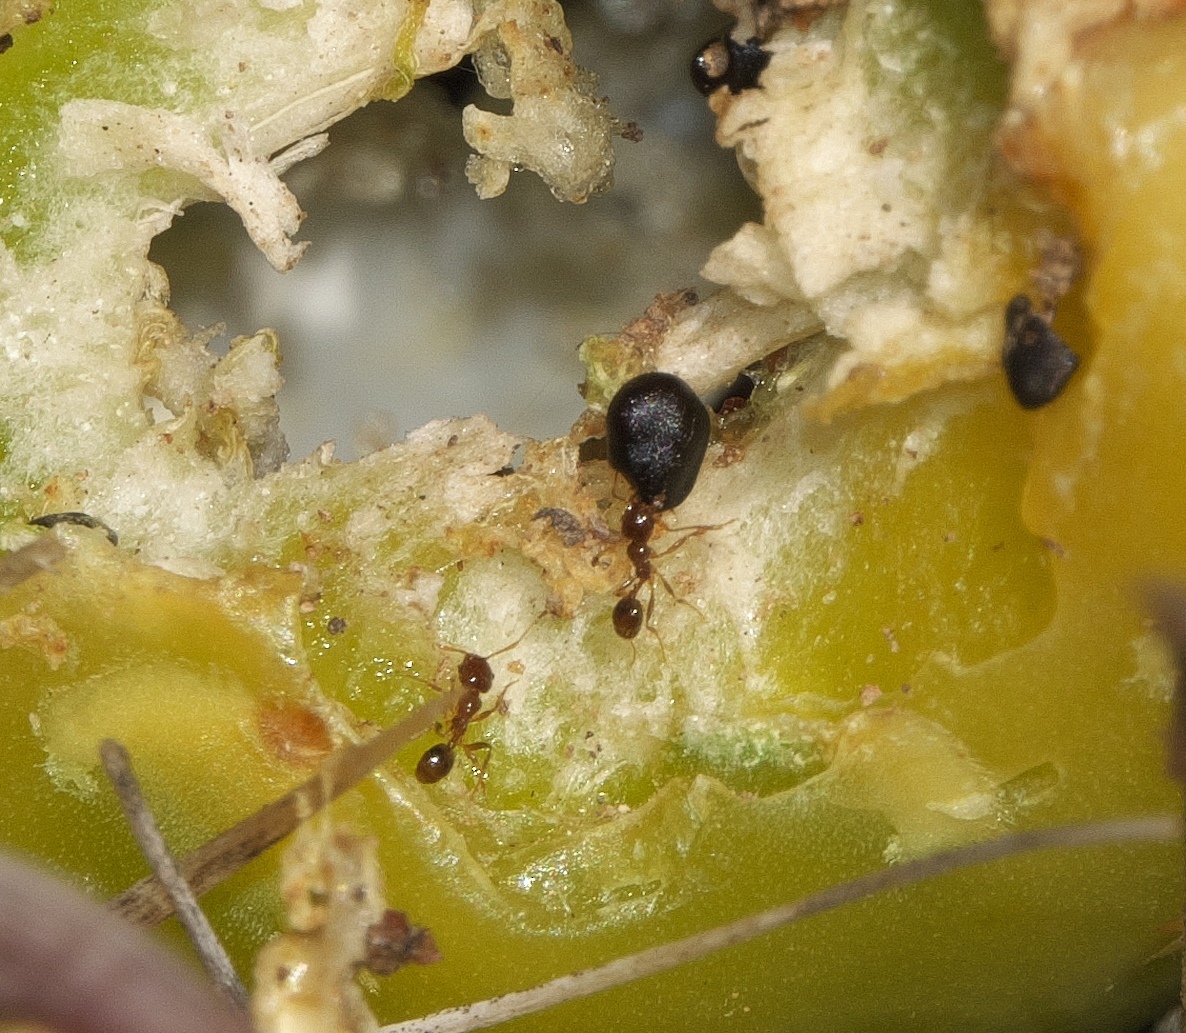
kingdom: Animalia
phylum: Arthropoda
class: Insecta
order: Hymenoptera
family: Formicidae
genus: Pheidole
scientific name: Pheidole tepicana
